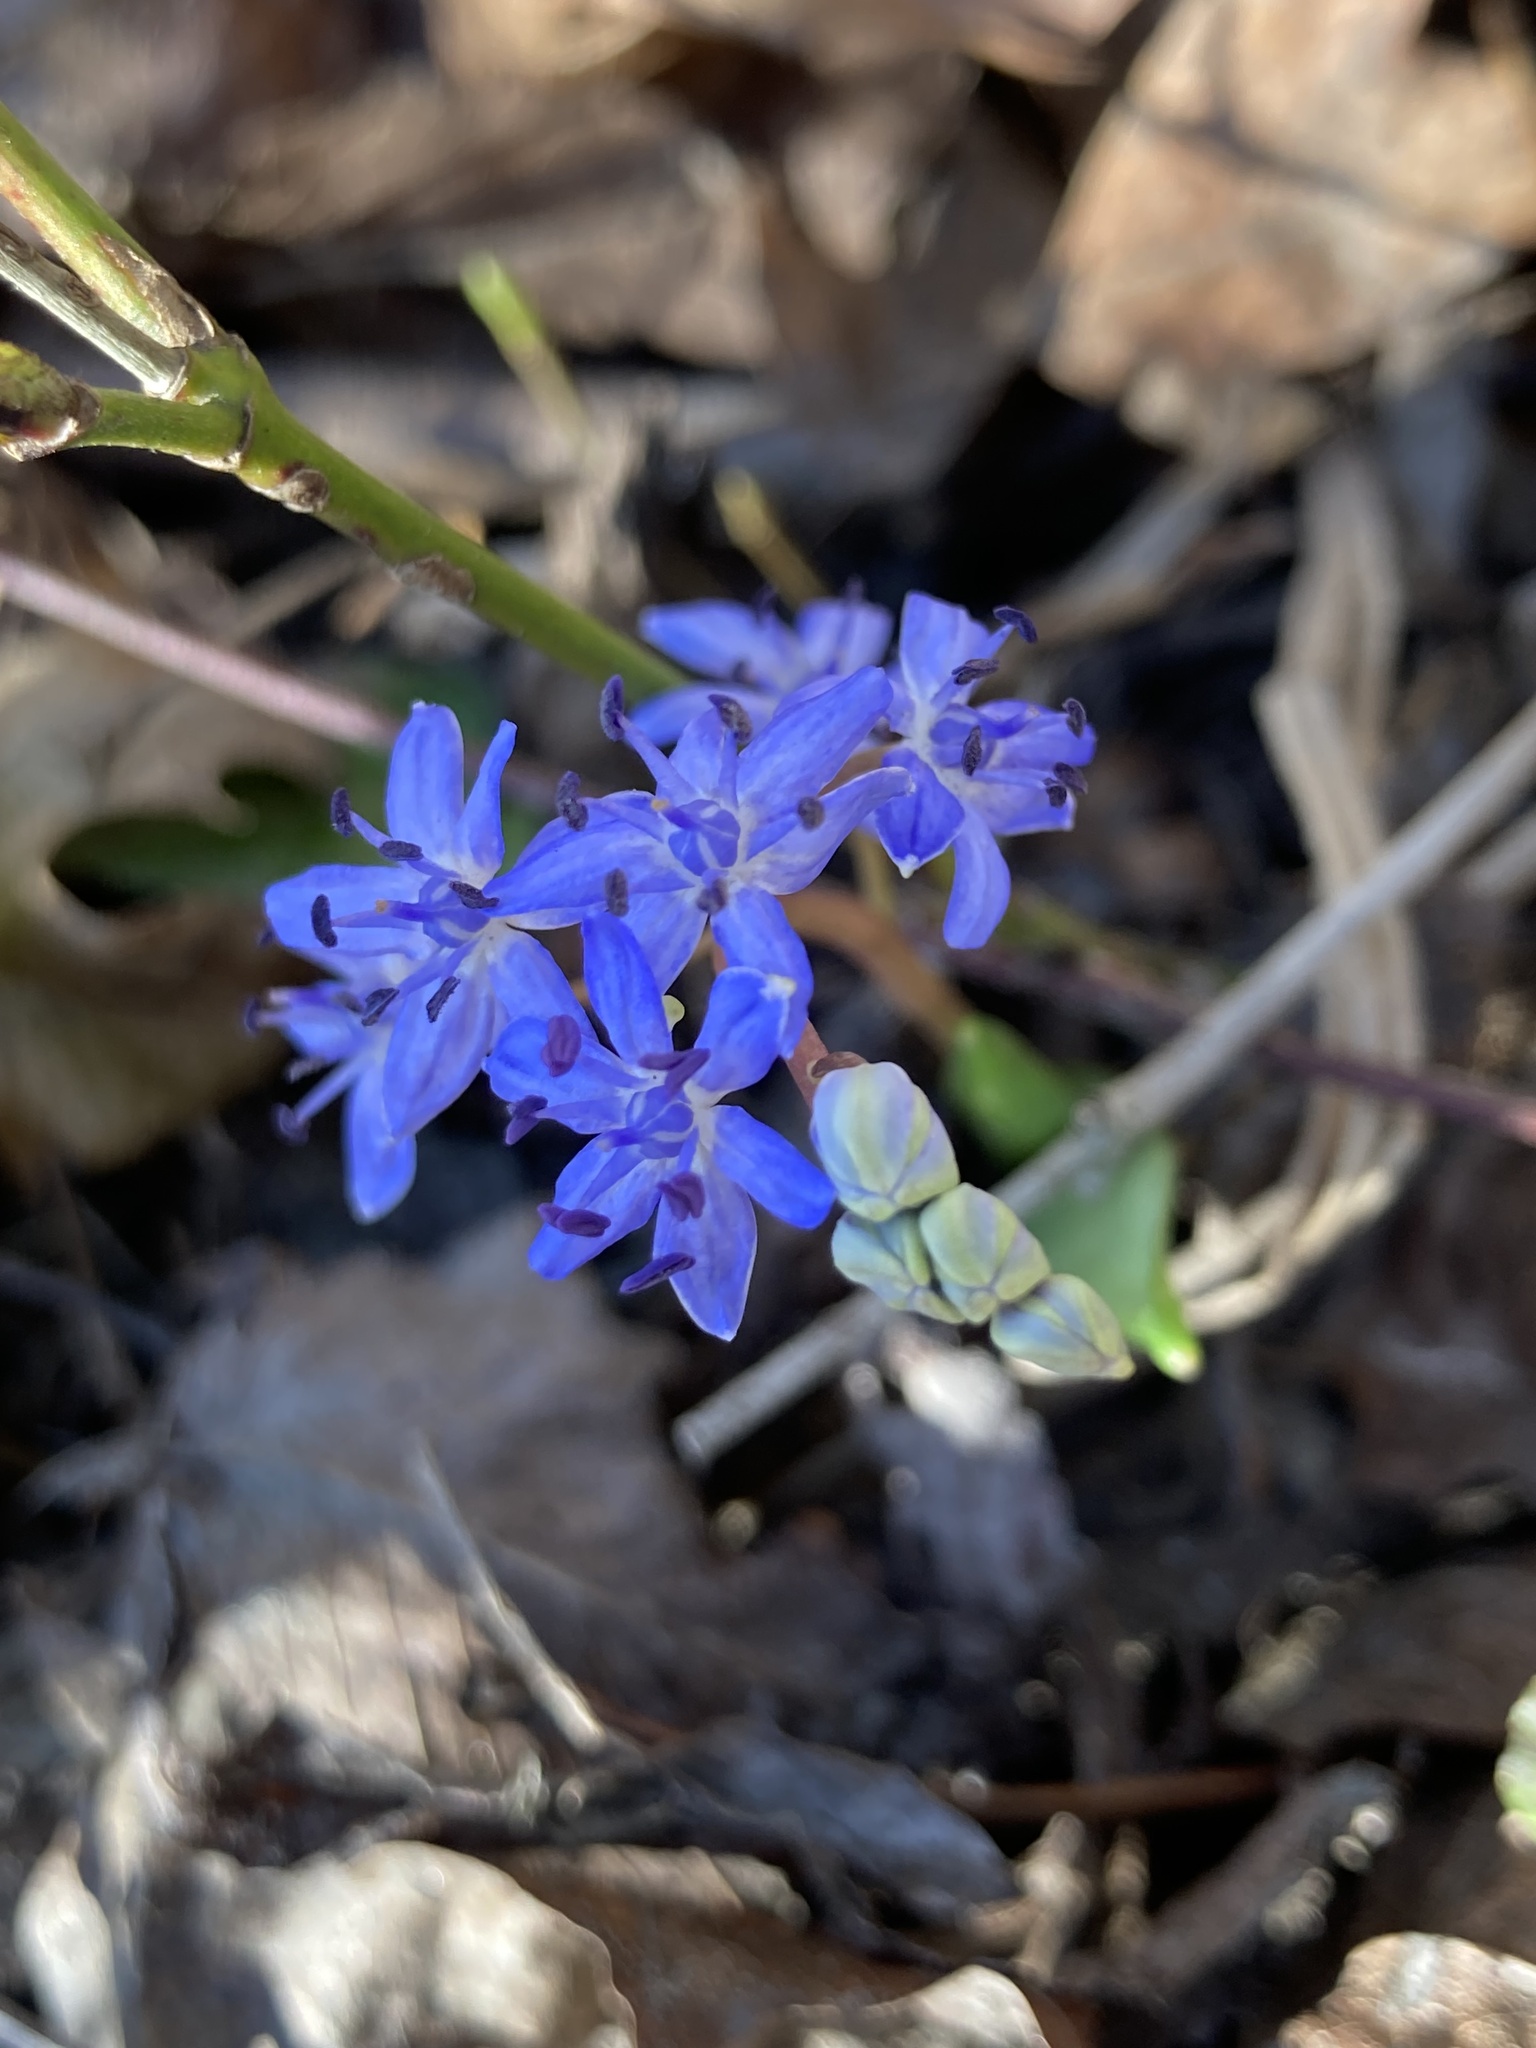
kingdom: Plantae
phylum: Tracheophyta
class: Liliopsida
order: Asparagales
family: Asparagaceae
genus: Scilla
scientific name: Scilla vindobonensis
